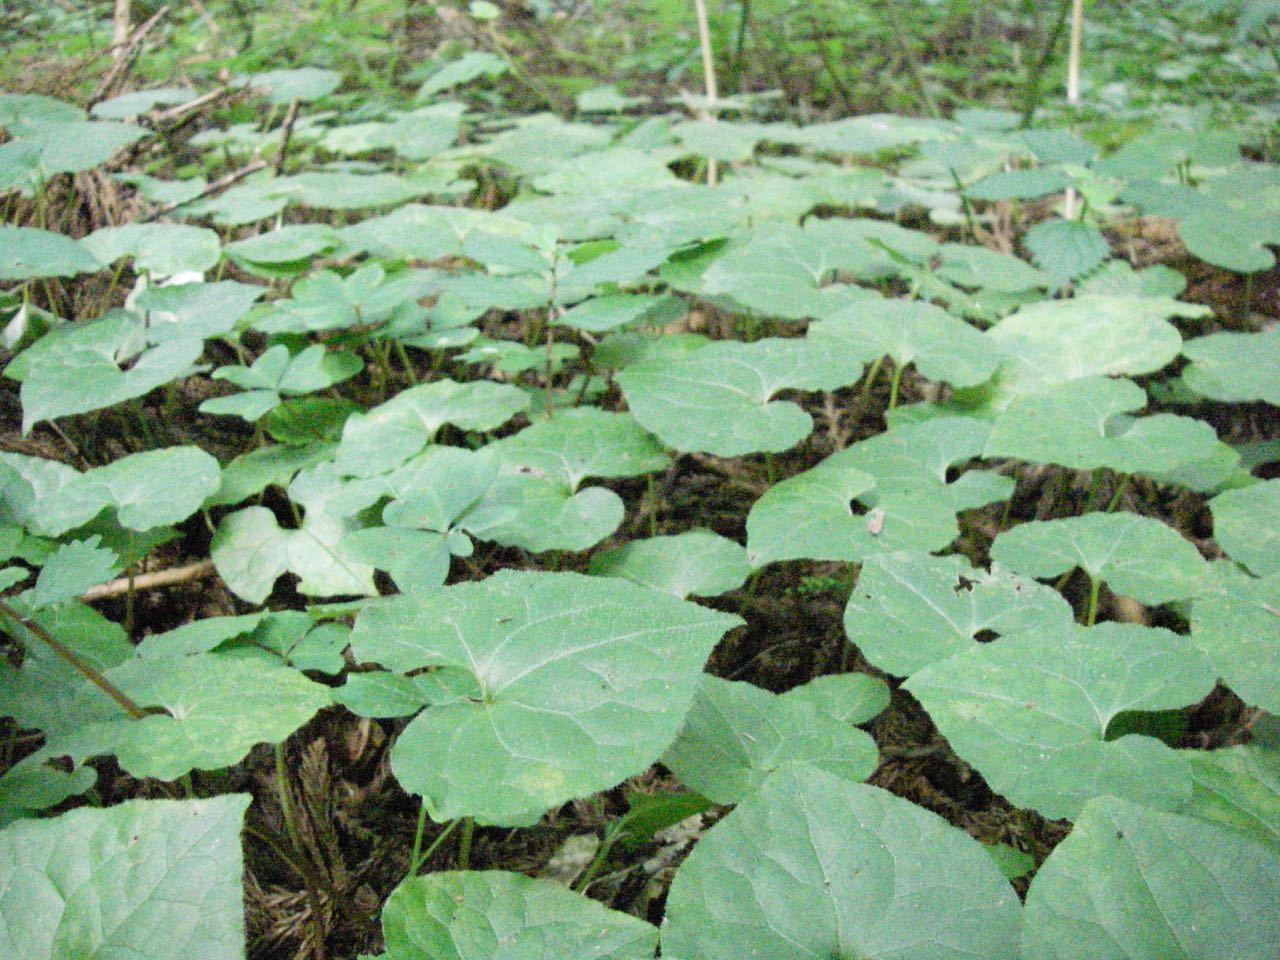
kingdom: Plantae
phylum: Tracheophyta
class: Magnoliopsida
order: Piperales
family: Aristolochiaceae
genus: Asarum
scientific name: Asarum caulescens
